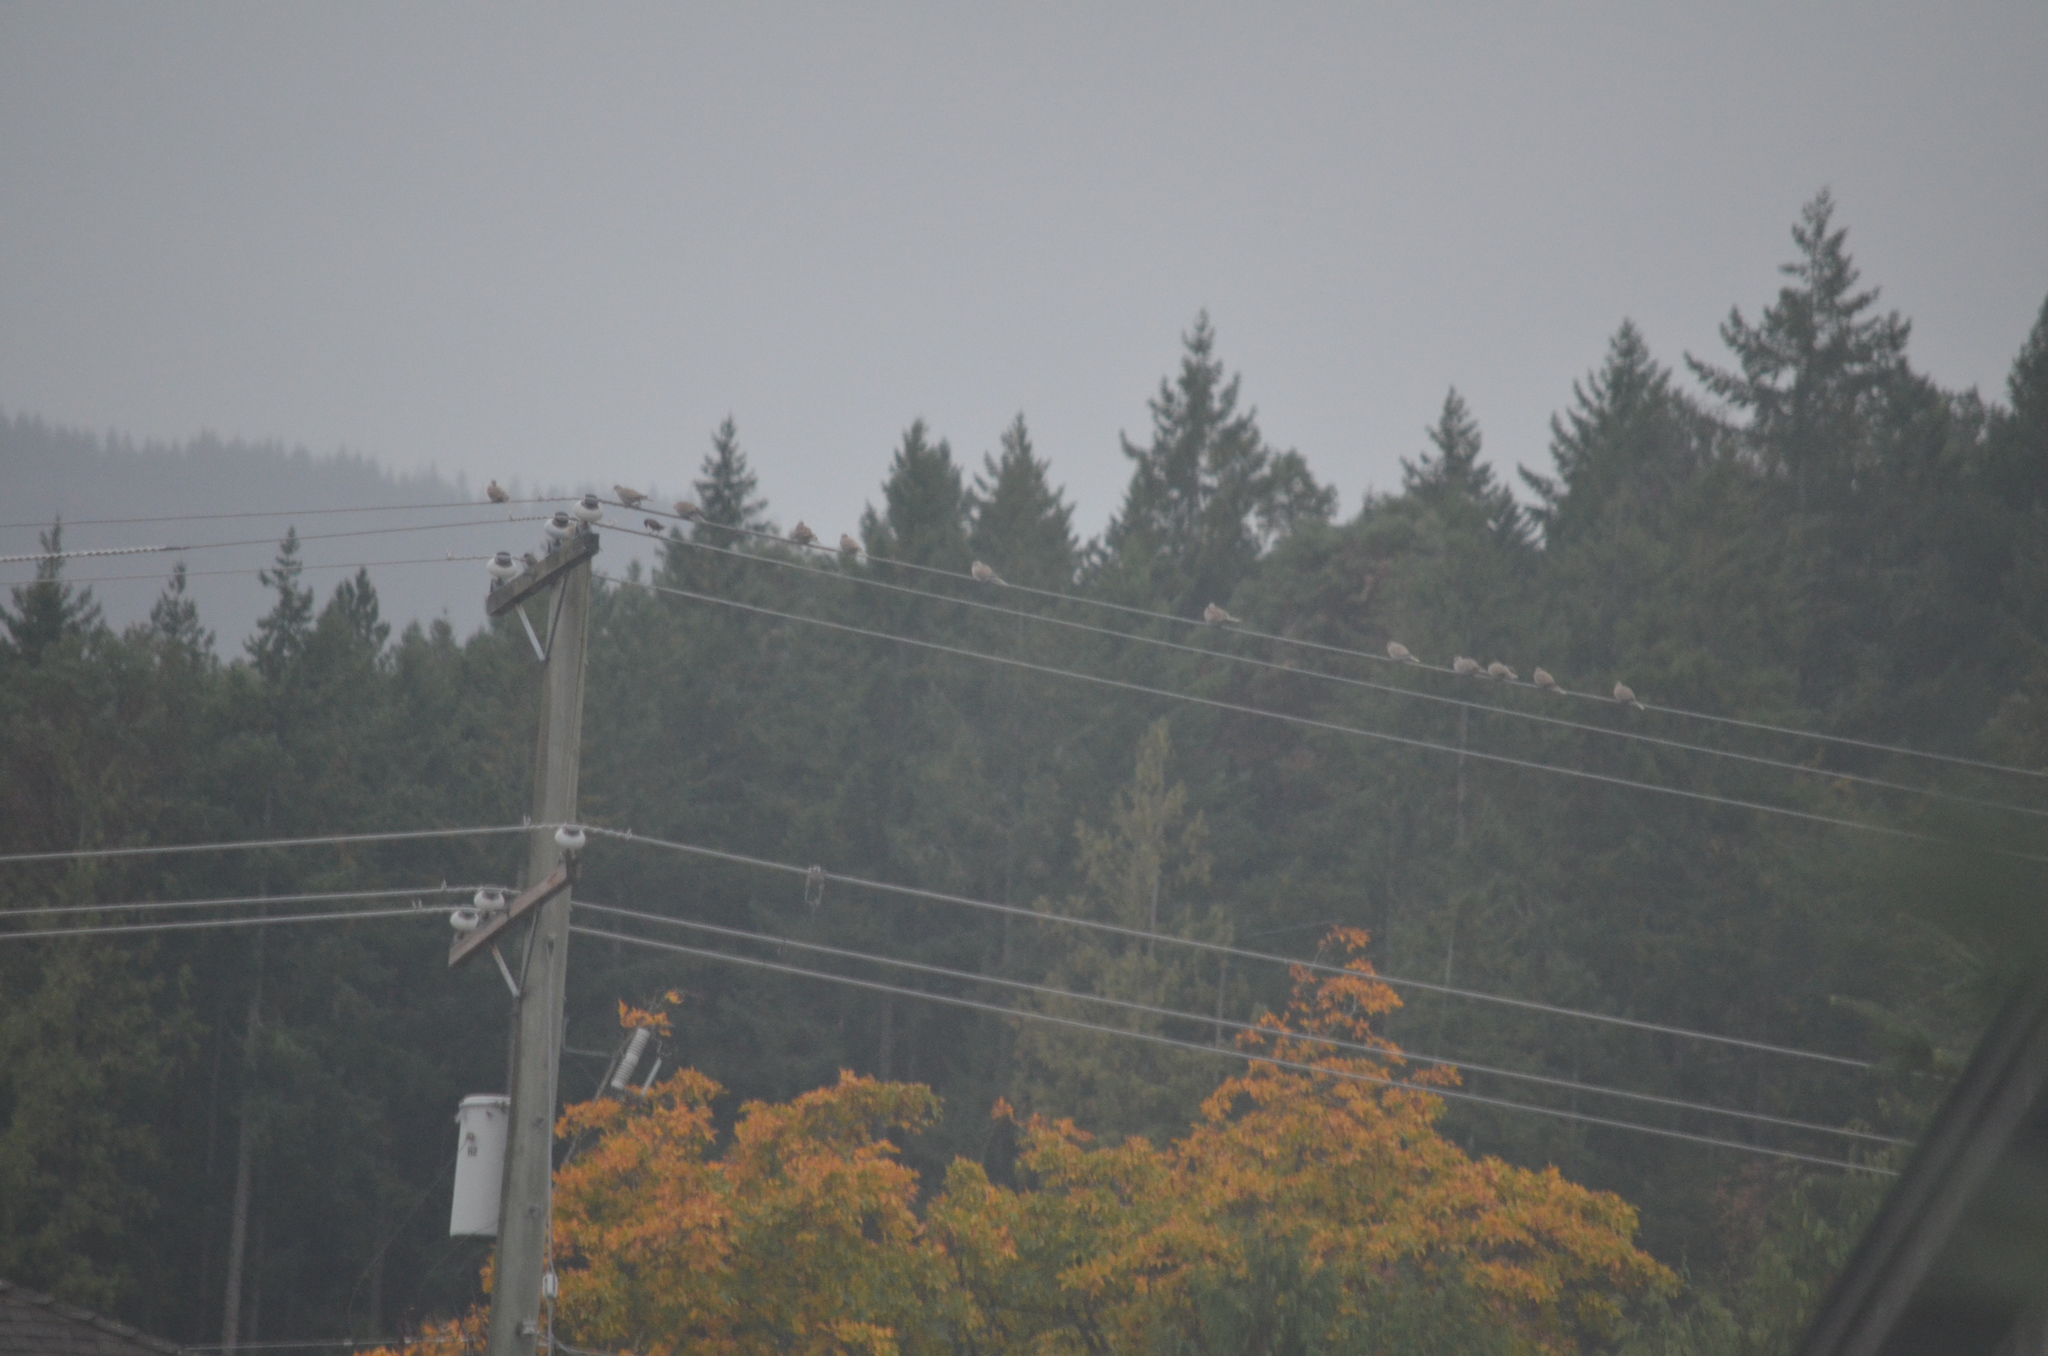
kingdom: Animalia
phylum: Chordata
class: Aves
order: Columbiformes
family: Columbidae
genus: Streptopelia
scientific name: Streptopelia decaocto
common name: Eurasian collared dove
